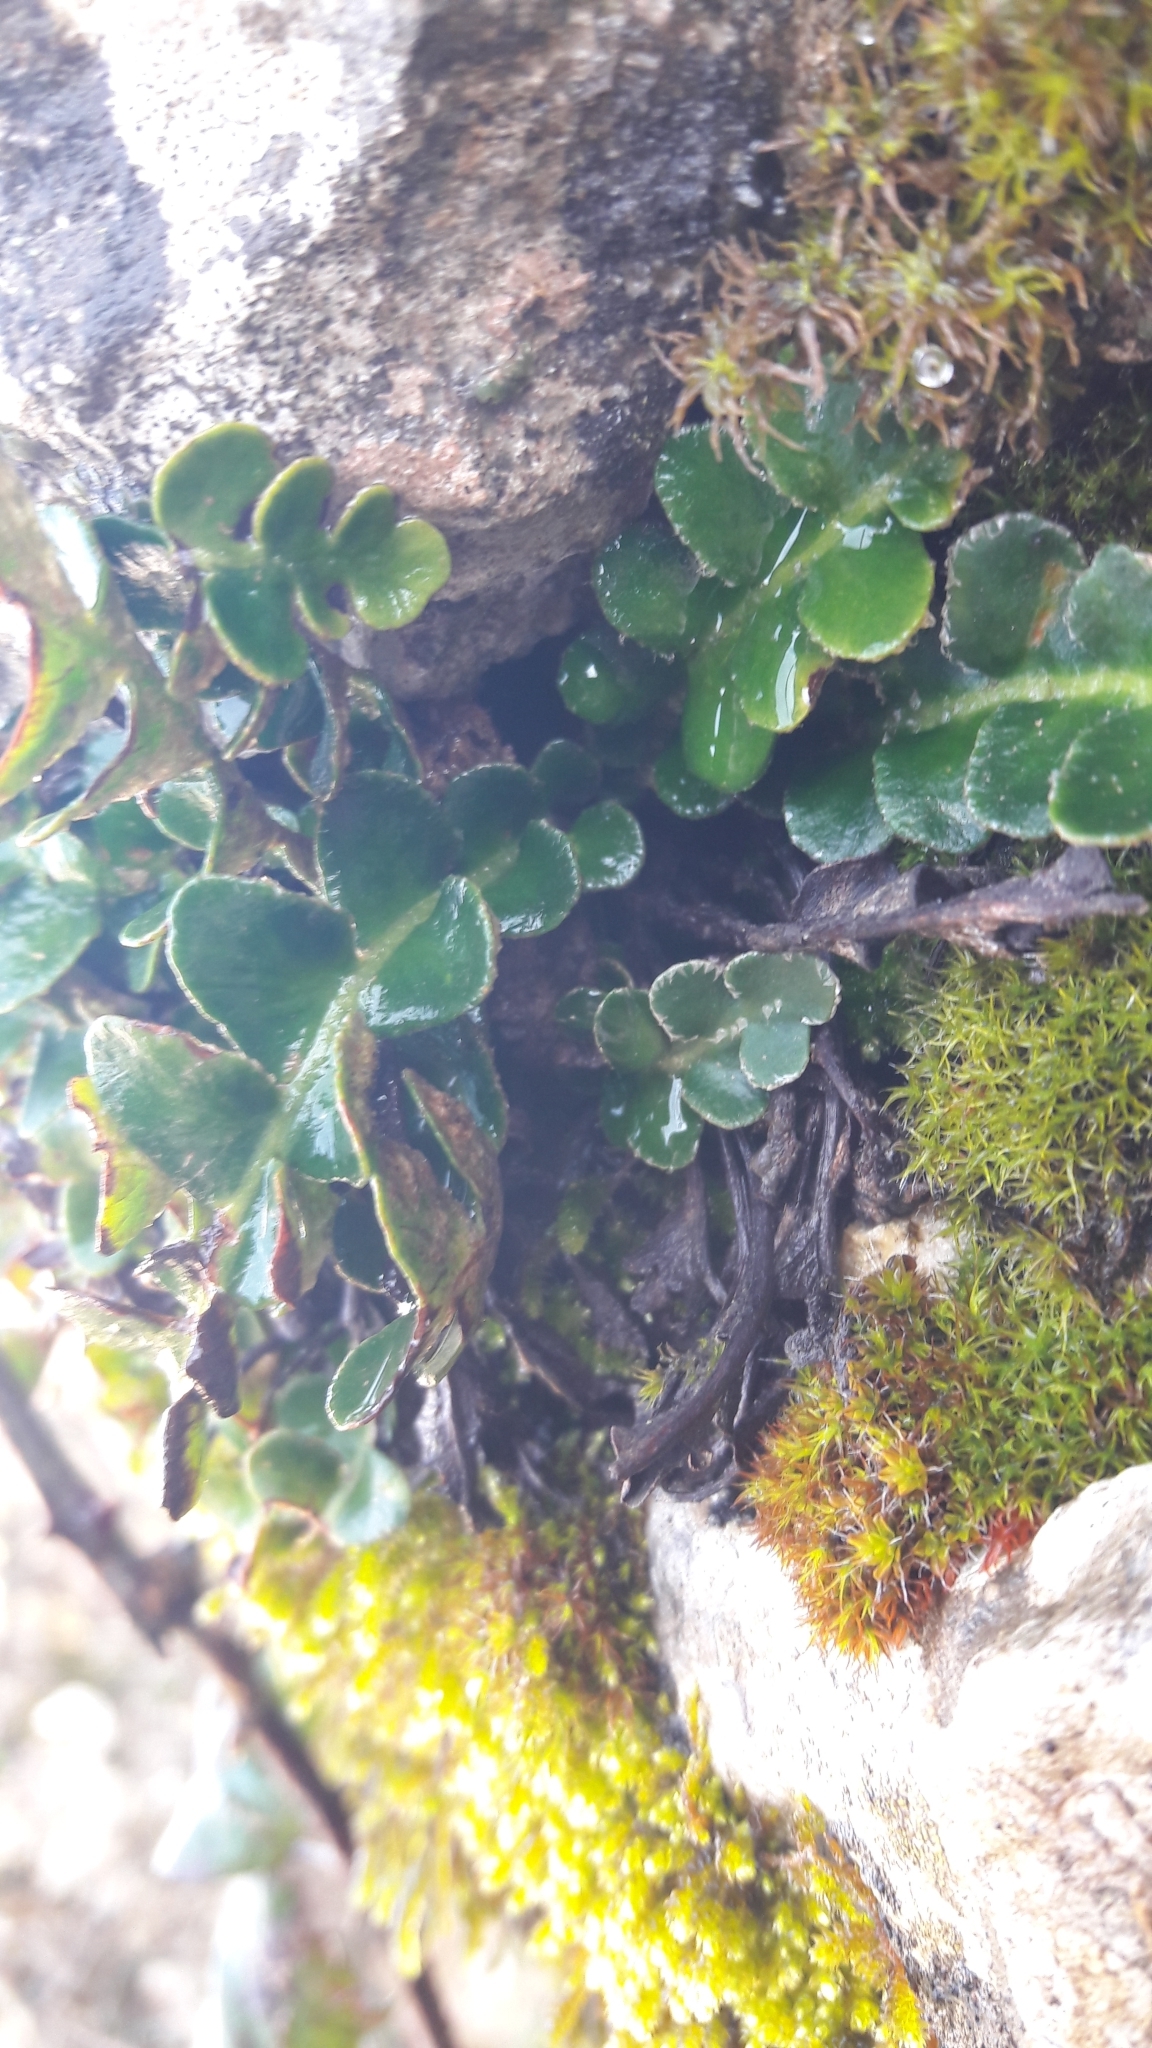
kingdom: Plantae
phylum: Tracheophyta
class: Polypodiopsida
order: Polypodiales
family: Aspleniaceae
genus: Asplenium
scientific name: Asplenium ceterach
